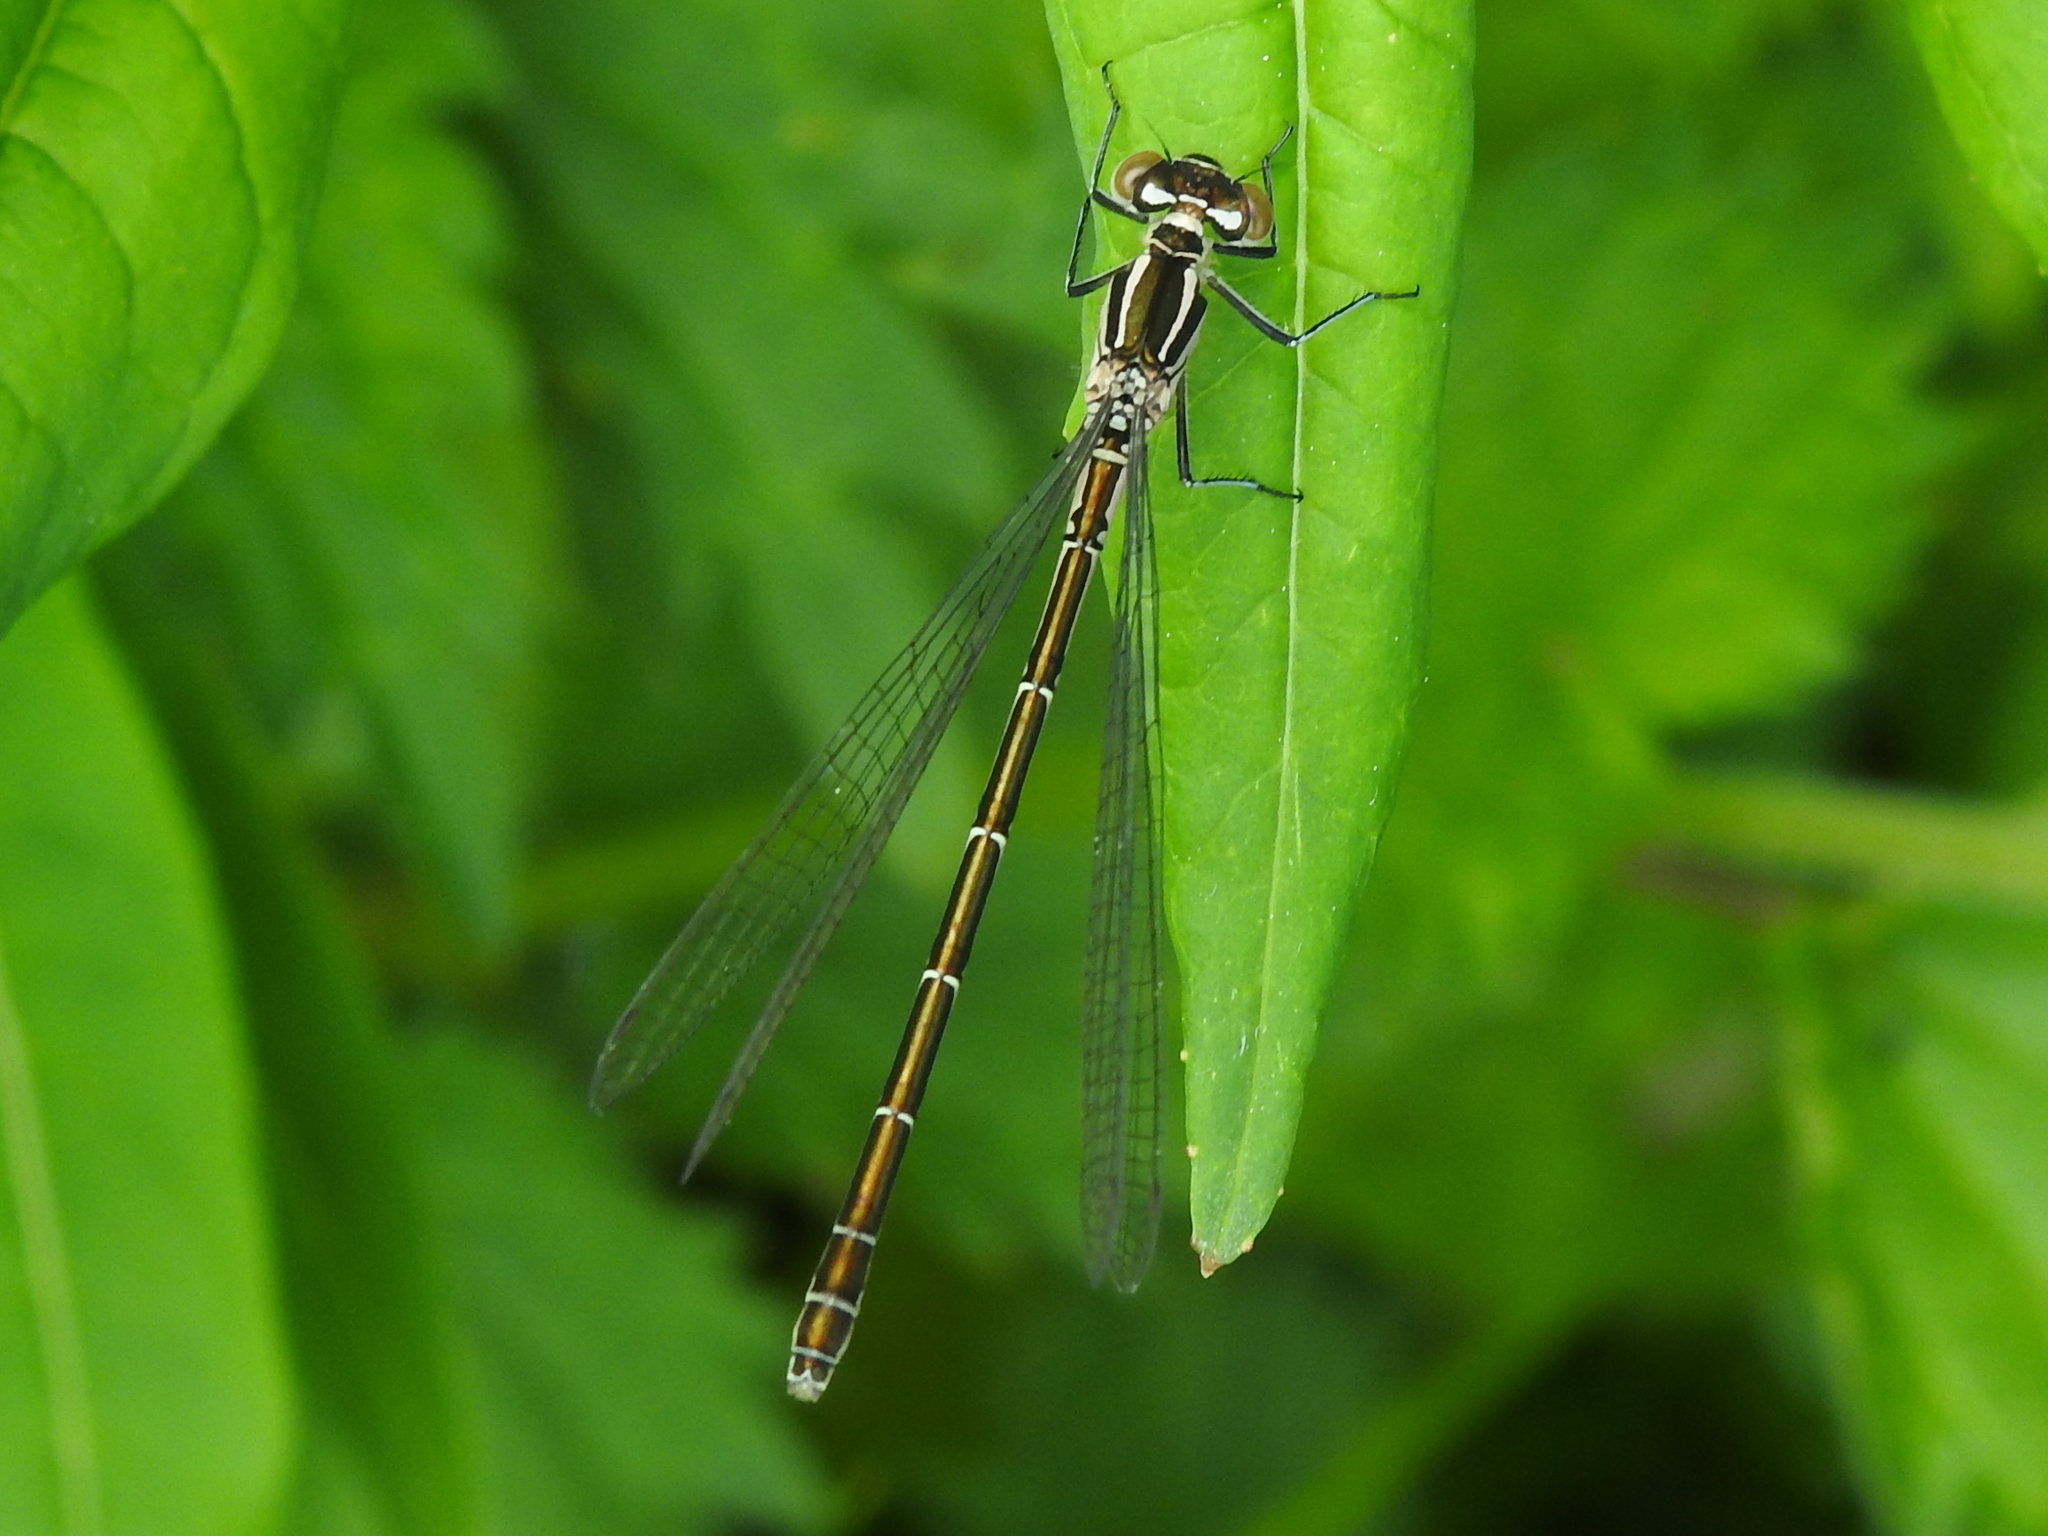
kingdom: Animalia
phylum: Arthropoda
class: Insecta
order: Odonata
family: Coenagrionidae
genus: Coenagrion
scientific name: Coenagrion hastulatum
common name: Spearhead bluet
